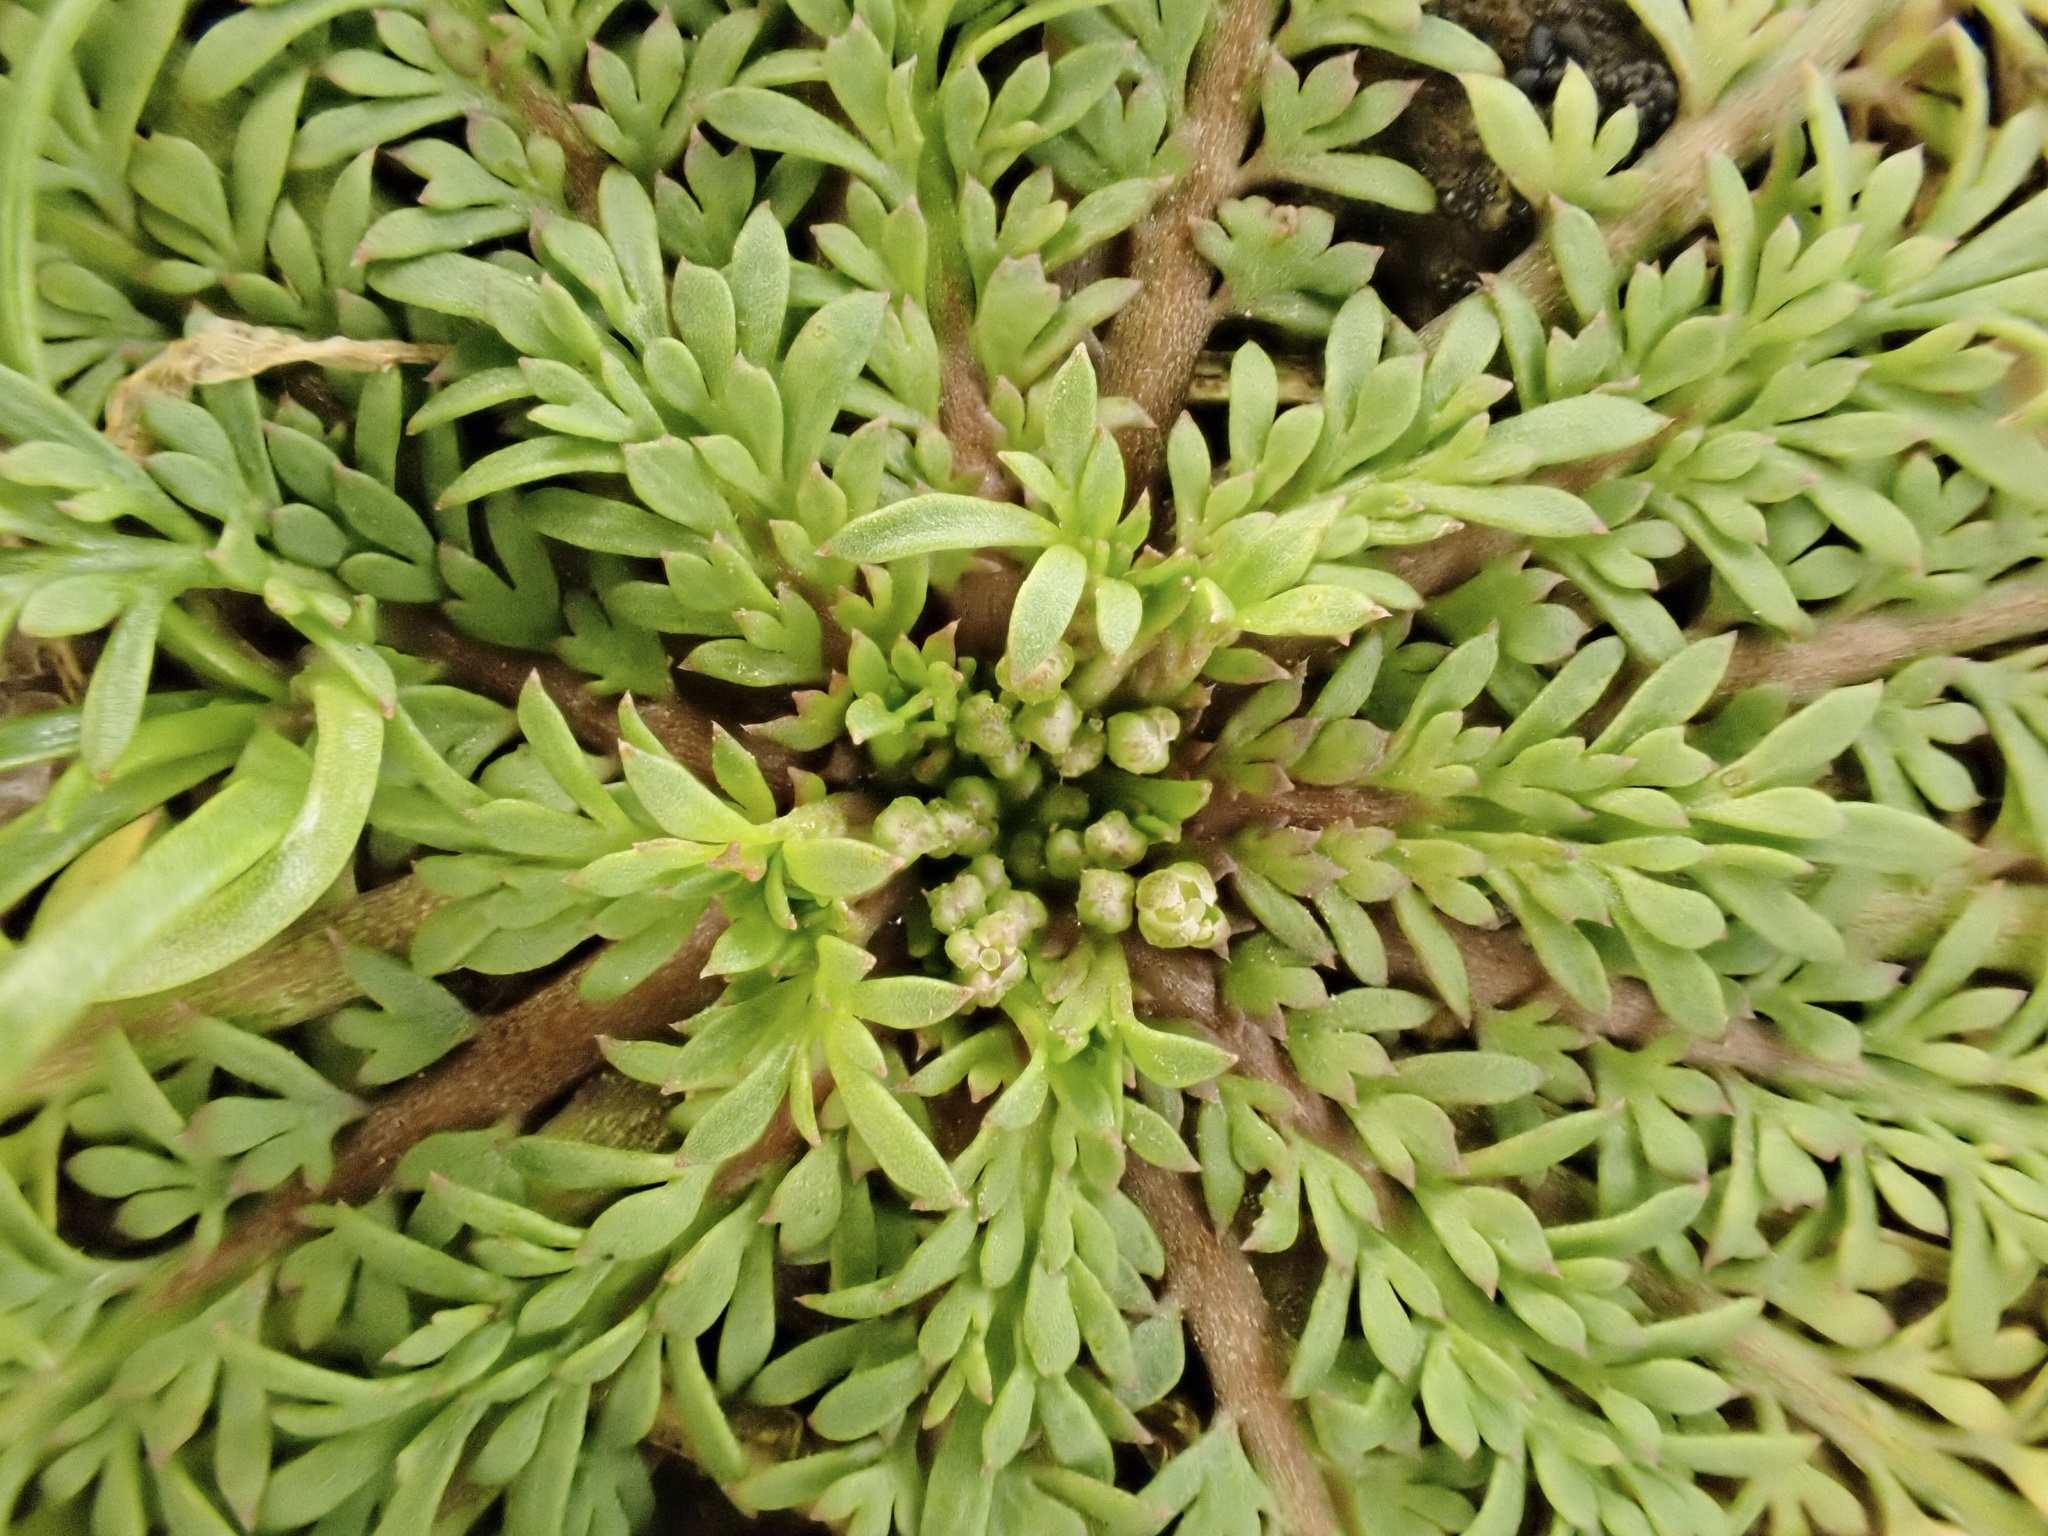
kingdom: Plantae
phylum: Tracheophyta
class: Magnoliopsida
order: Brassicales
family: Brassicaceae
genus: Lepidium
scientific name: Lepidium didymum
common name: Lesser swinecress
